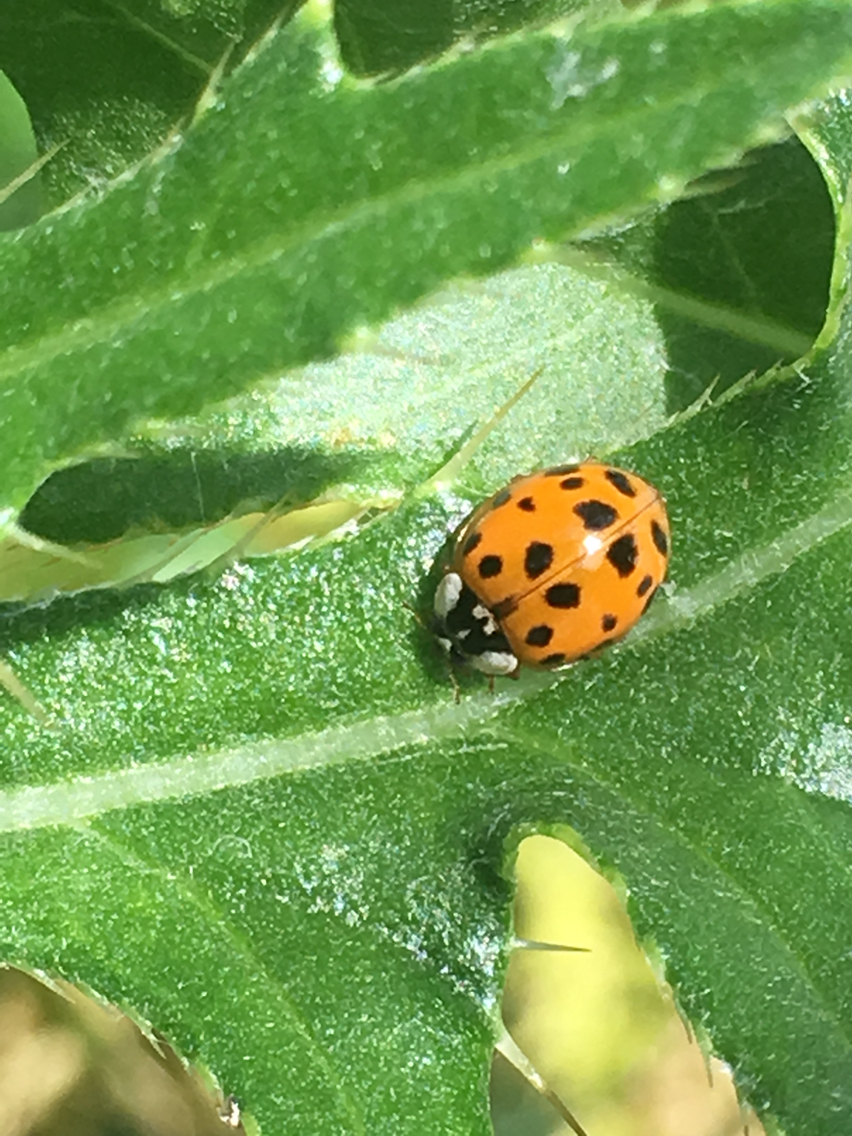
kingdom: Animalia
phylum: Arthropoda
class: Insecta
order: Coleoptera
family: Coccinellidae
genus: Harmonia
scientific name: Harmonia axyridis
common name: Harlequin ladybird
